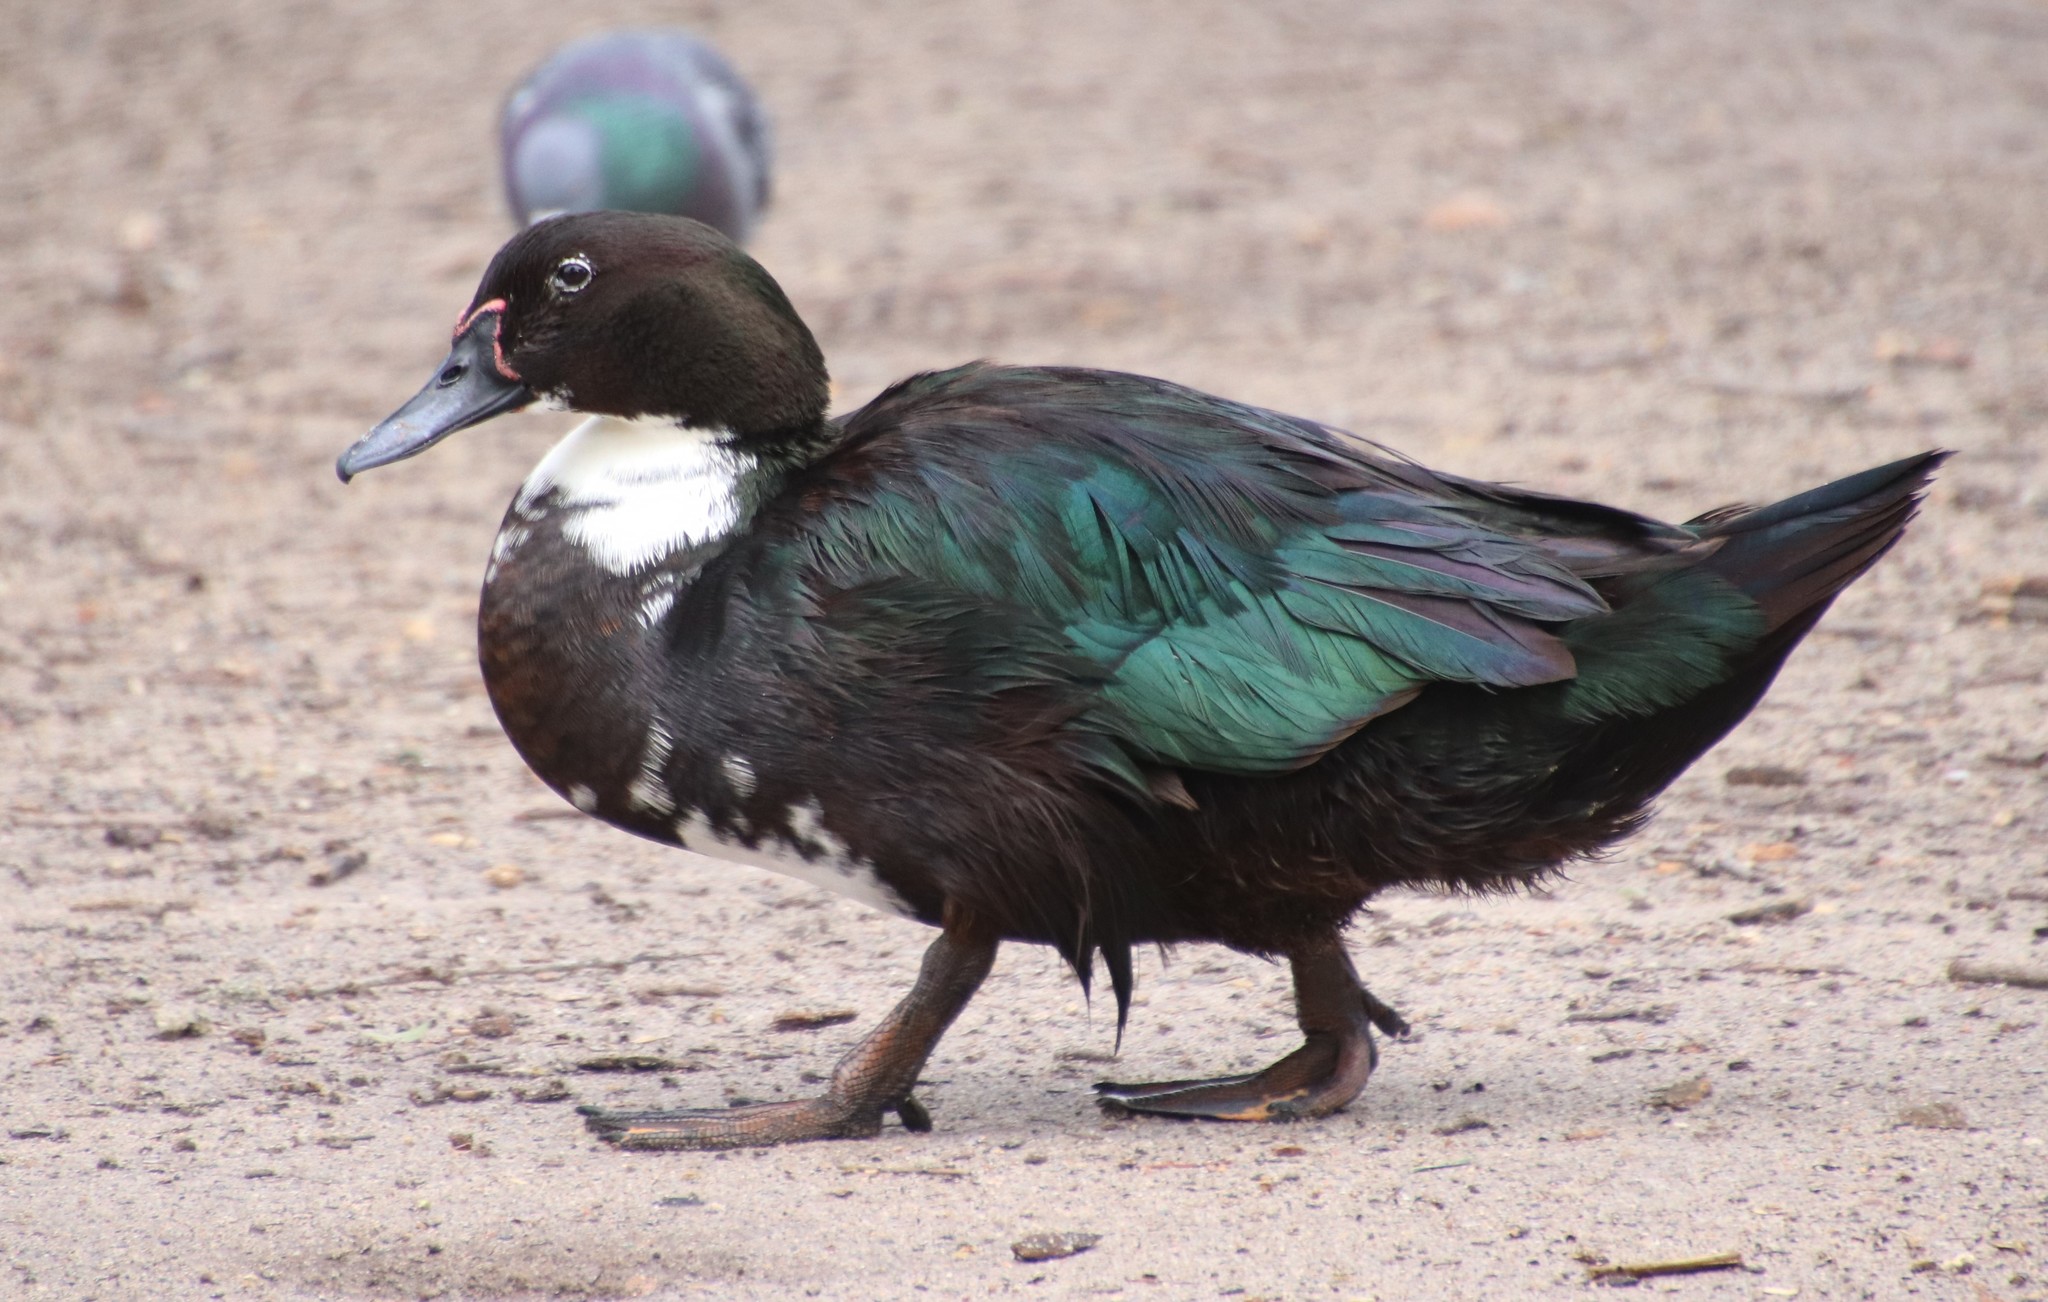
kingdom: Animalia
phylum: Chordata
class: Aves
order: Anseriformes
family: Anatidae
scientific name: Anatidae
